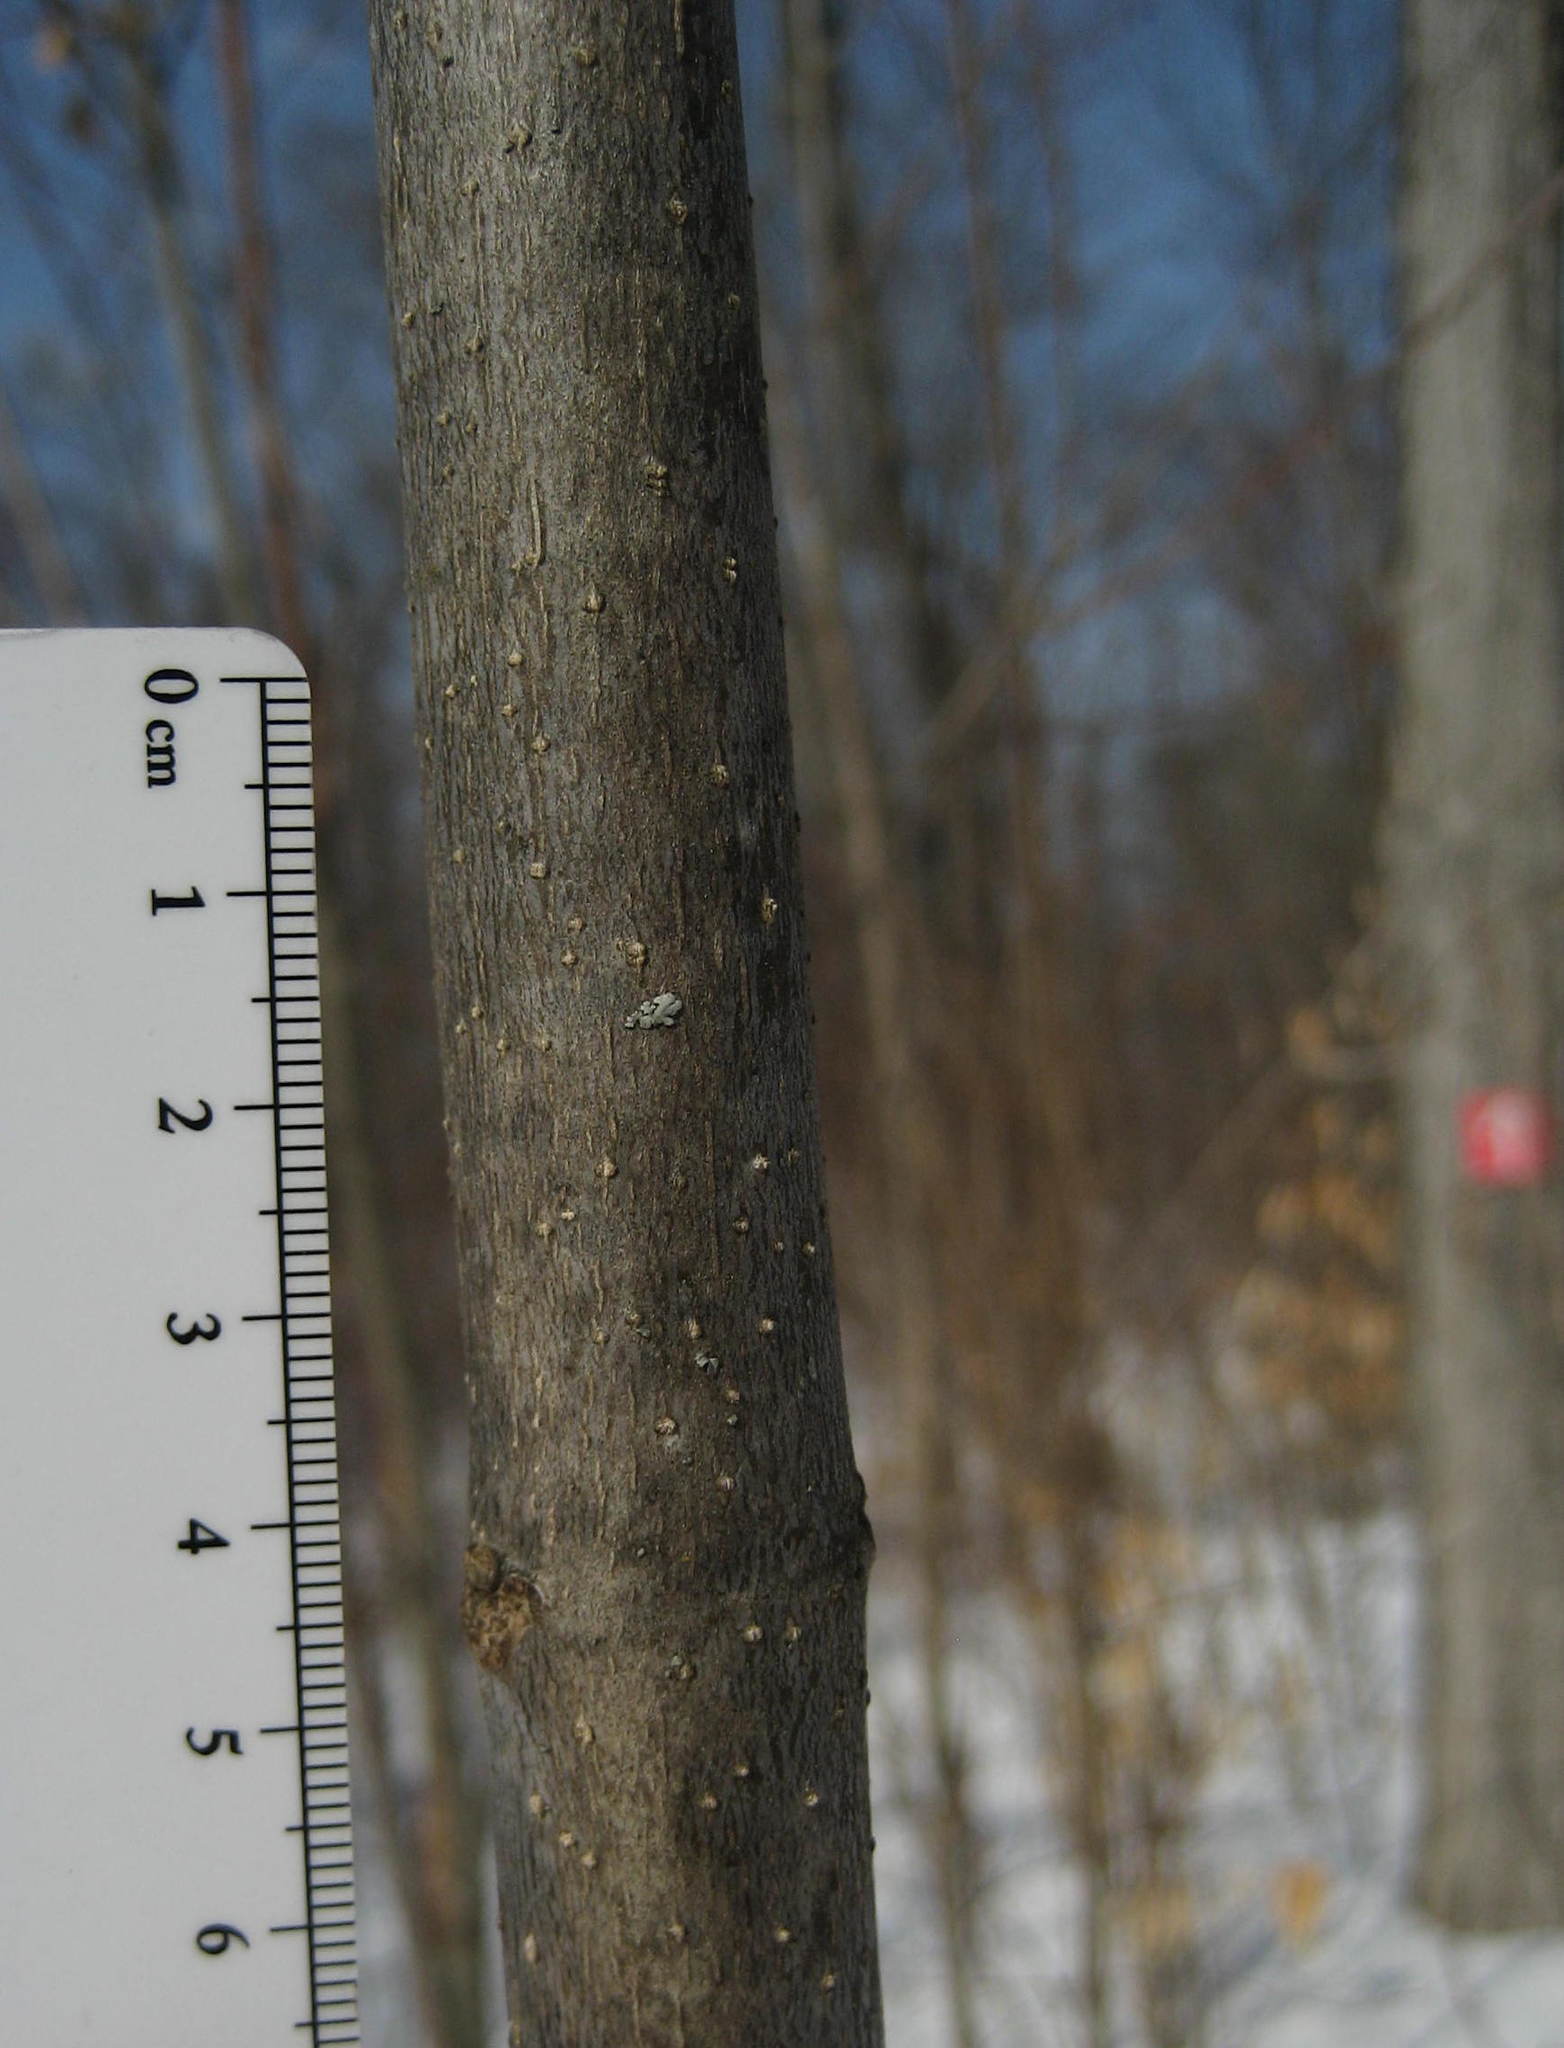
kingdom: Plantae
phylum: Tracheophyta
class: Magnoliopsida
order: Lamiales
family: Oleaceae
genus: Fraxinus
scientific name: Fraxinus americana
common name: White ash
